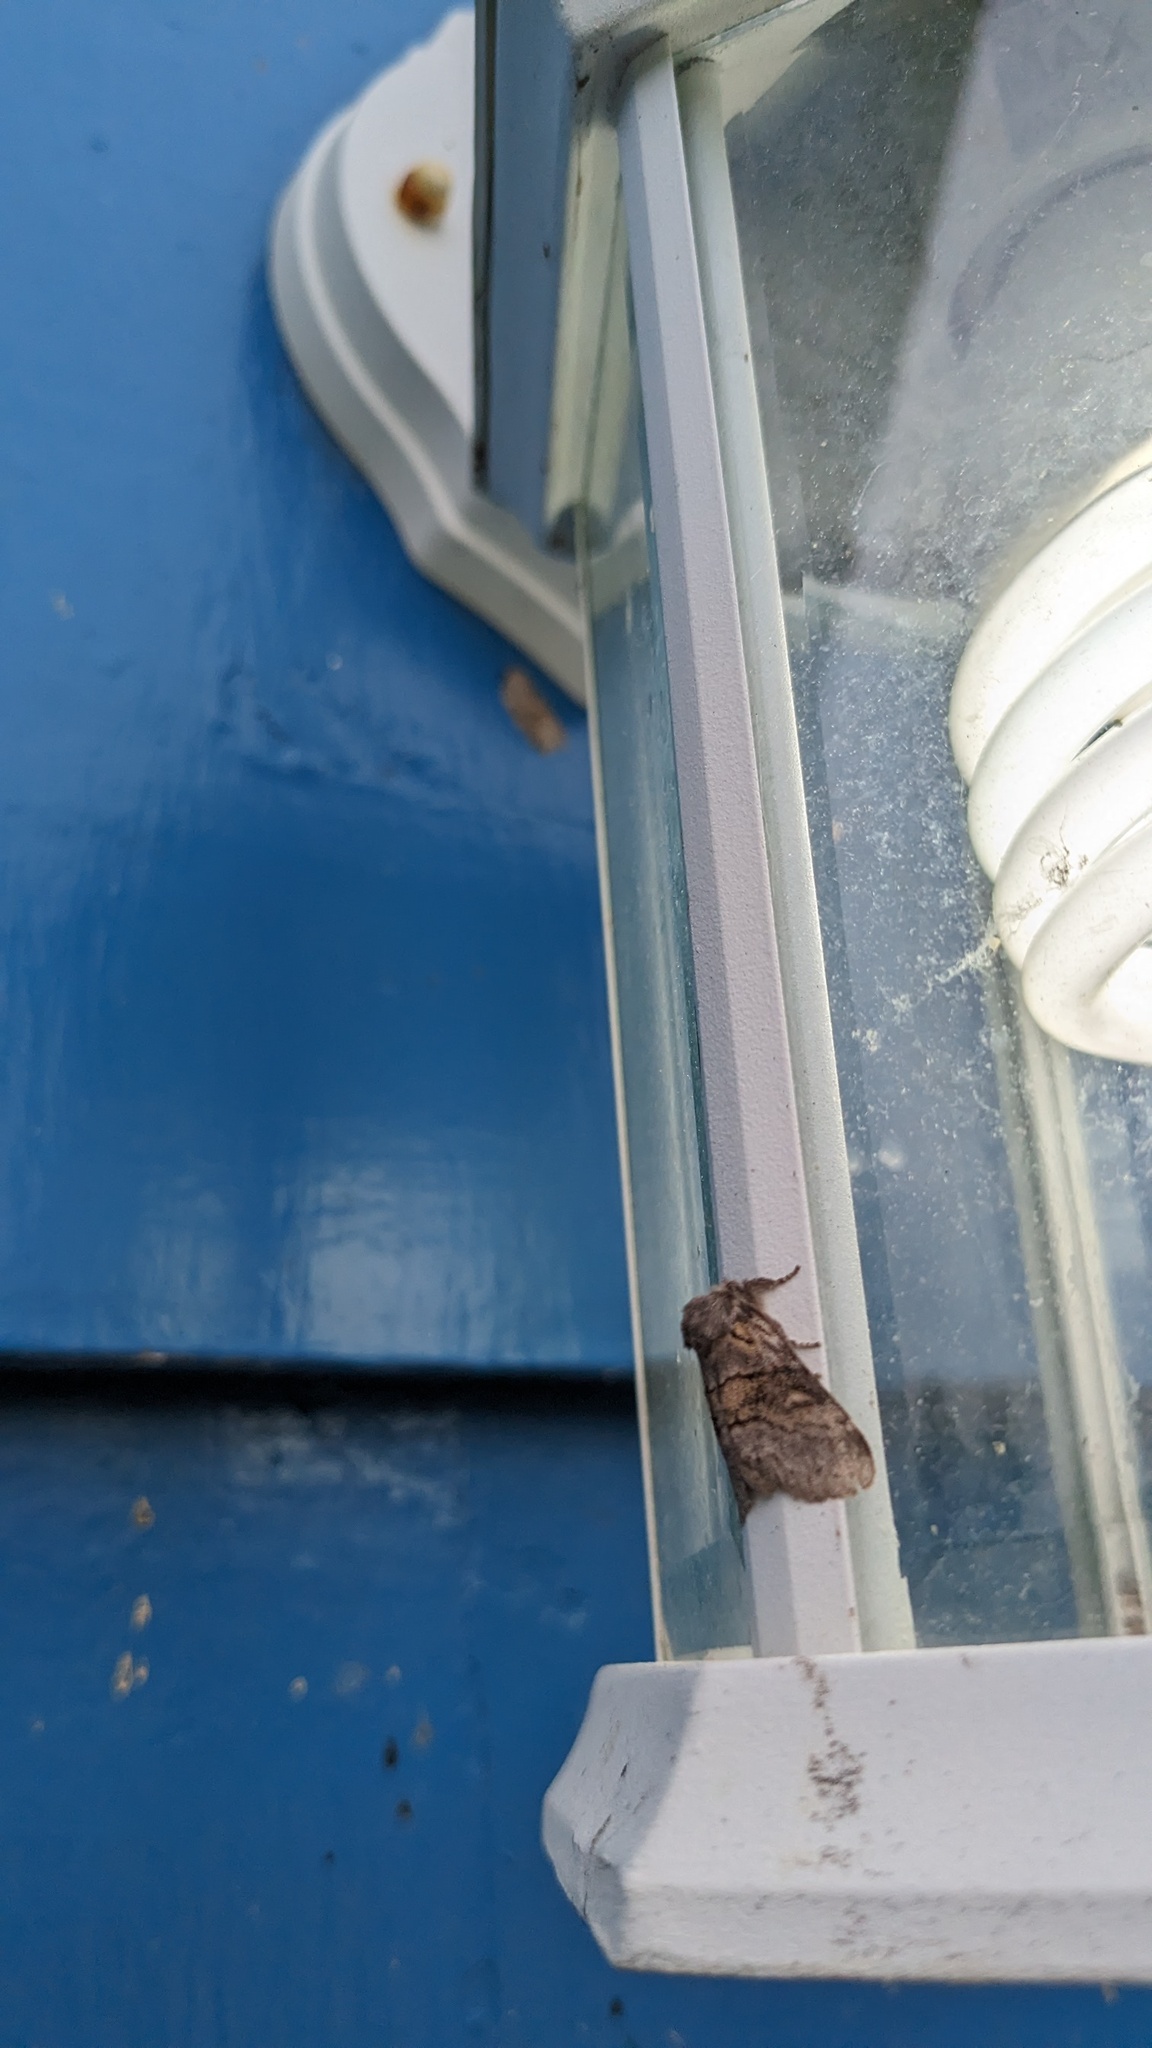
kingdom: Animalia
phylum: Arthropoda
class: Insecta
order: Lepidoptera
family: Notodontidae
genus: Gluphisia
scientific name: Gluphisia septentrionis
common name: Common gluphisia
